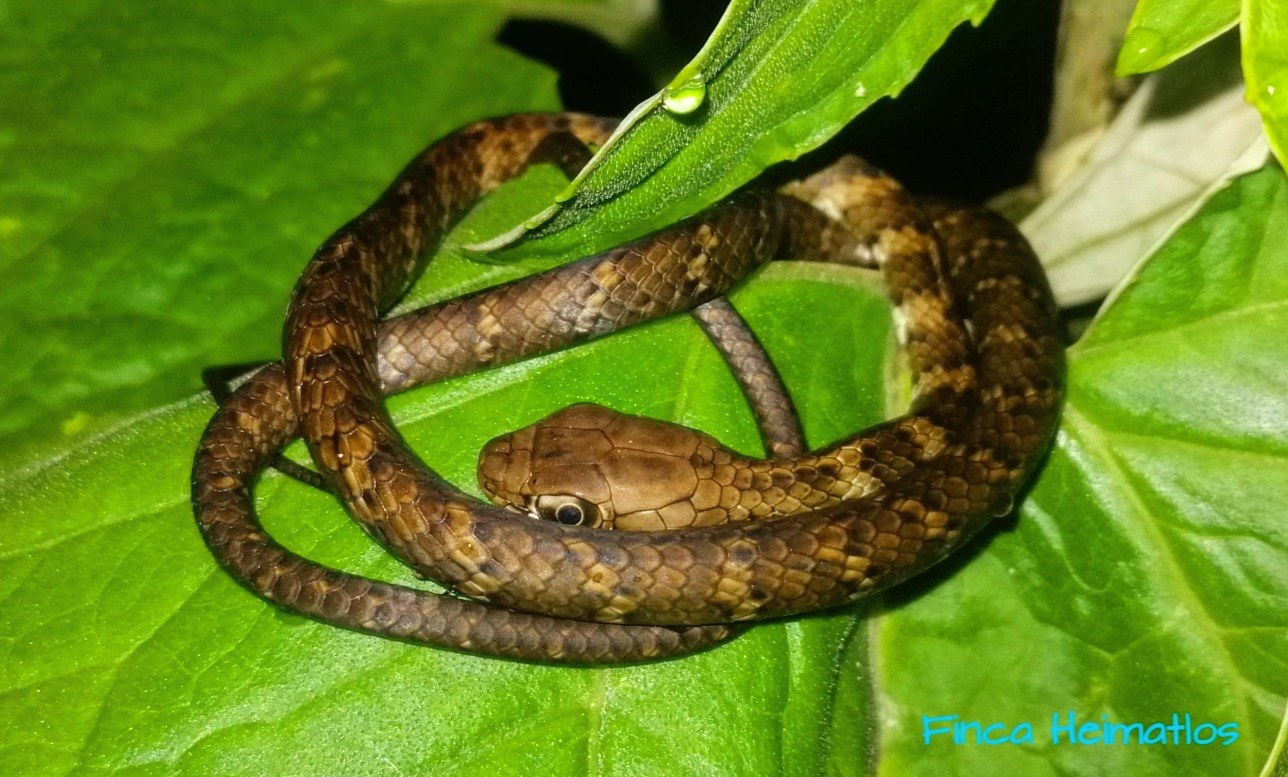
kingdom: Animalia
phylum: Chordata
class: Squamata
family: Colubridae
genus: Chironius
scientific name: Chironius fuscus
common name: Brown sipo
